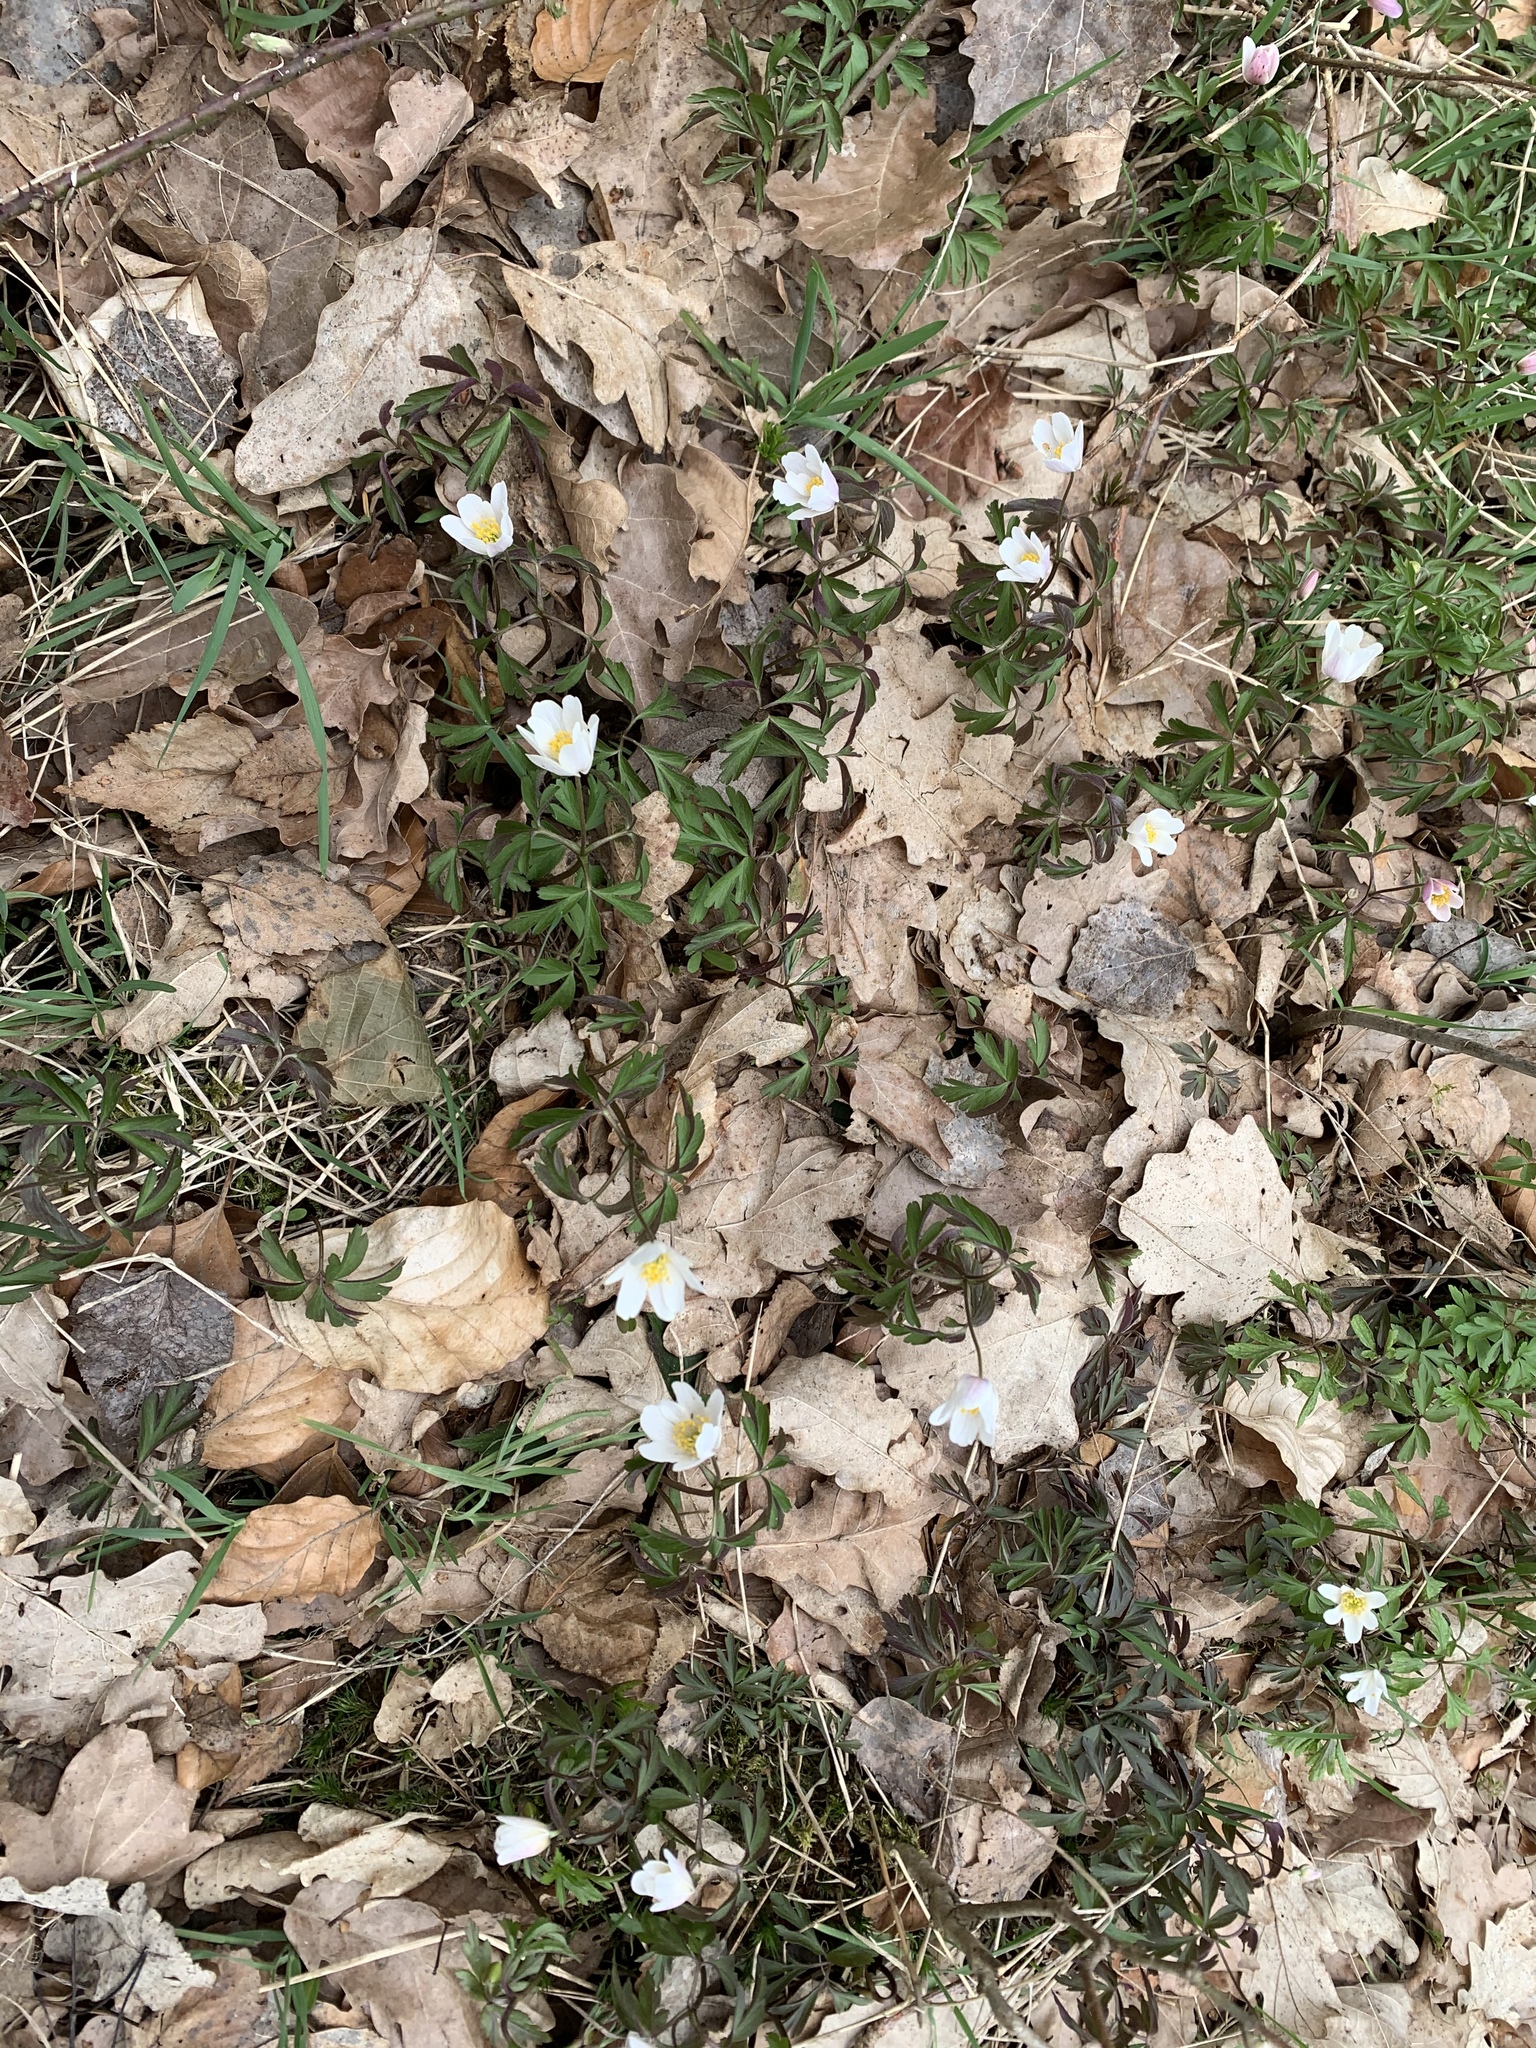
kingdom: Plantae
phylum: Tracheophyta
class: Magnoliopsida
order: Ranunculales
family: Ranunculaceae
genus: Anemone
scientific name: Anemone nemorosa
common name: Wood anemone
